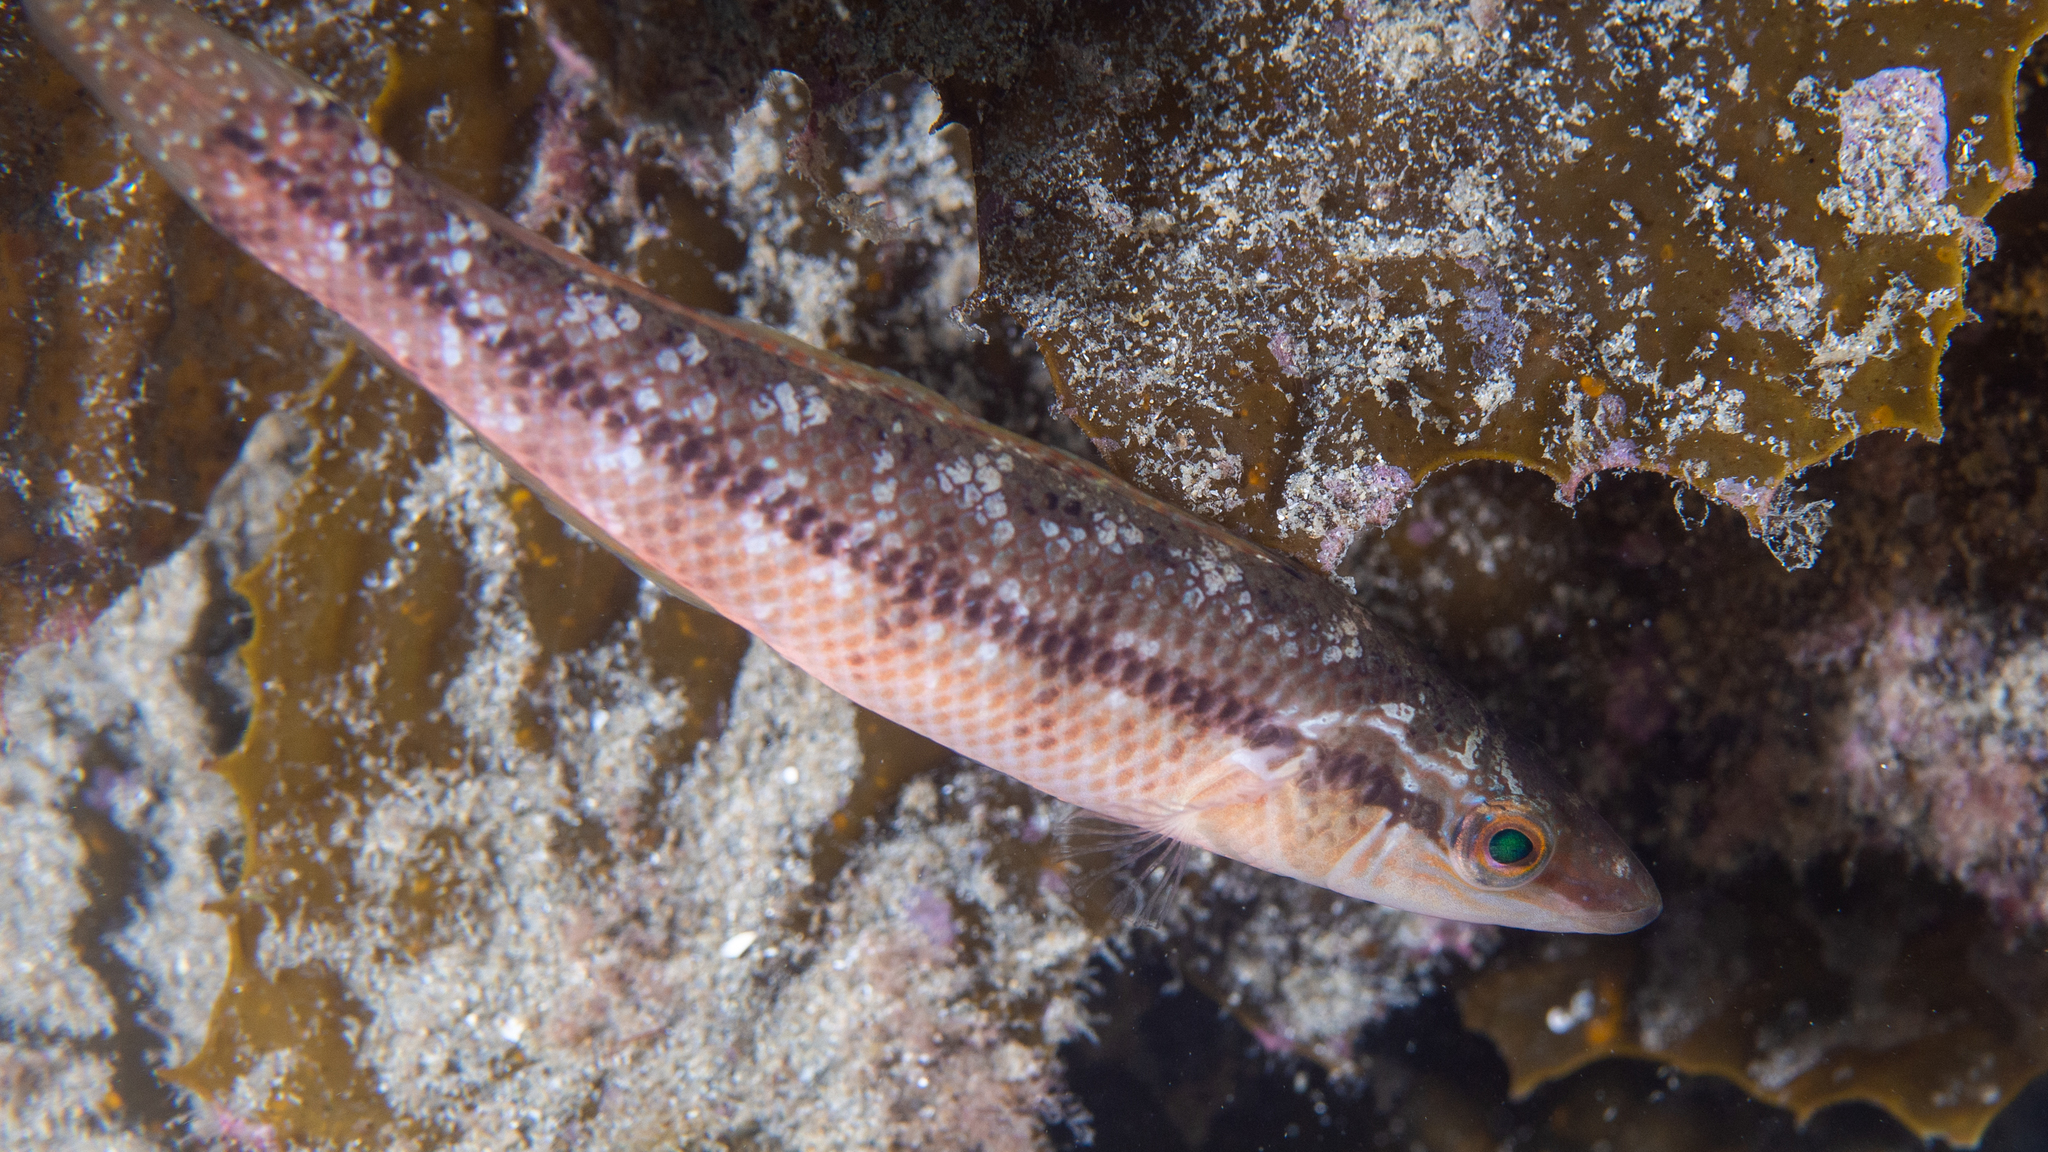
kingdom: Animalia
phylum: Chordata
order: Perciformes
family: Odacidae
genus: Neoodax
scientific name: Neoodax balteatus
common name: Ground mullet
